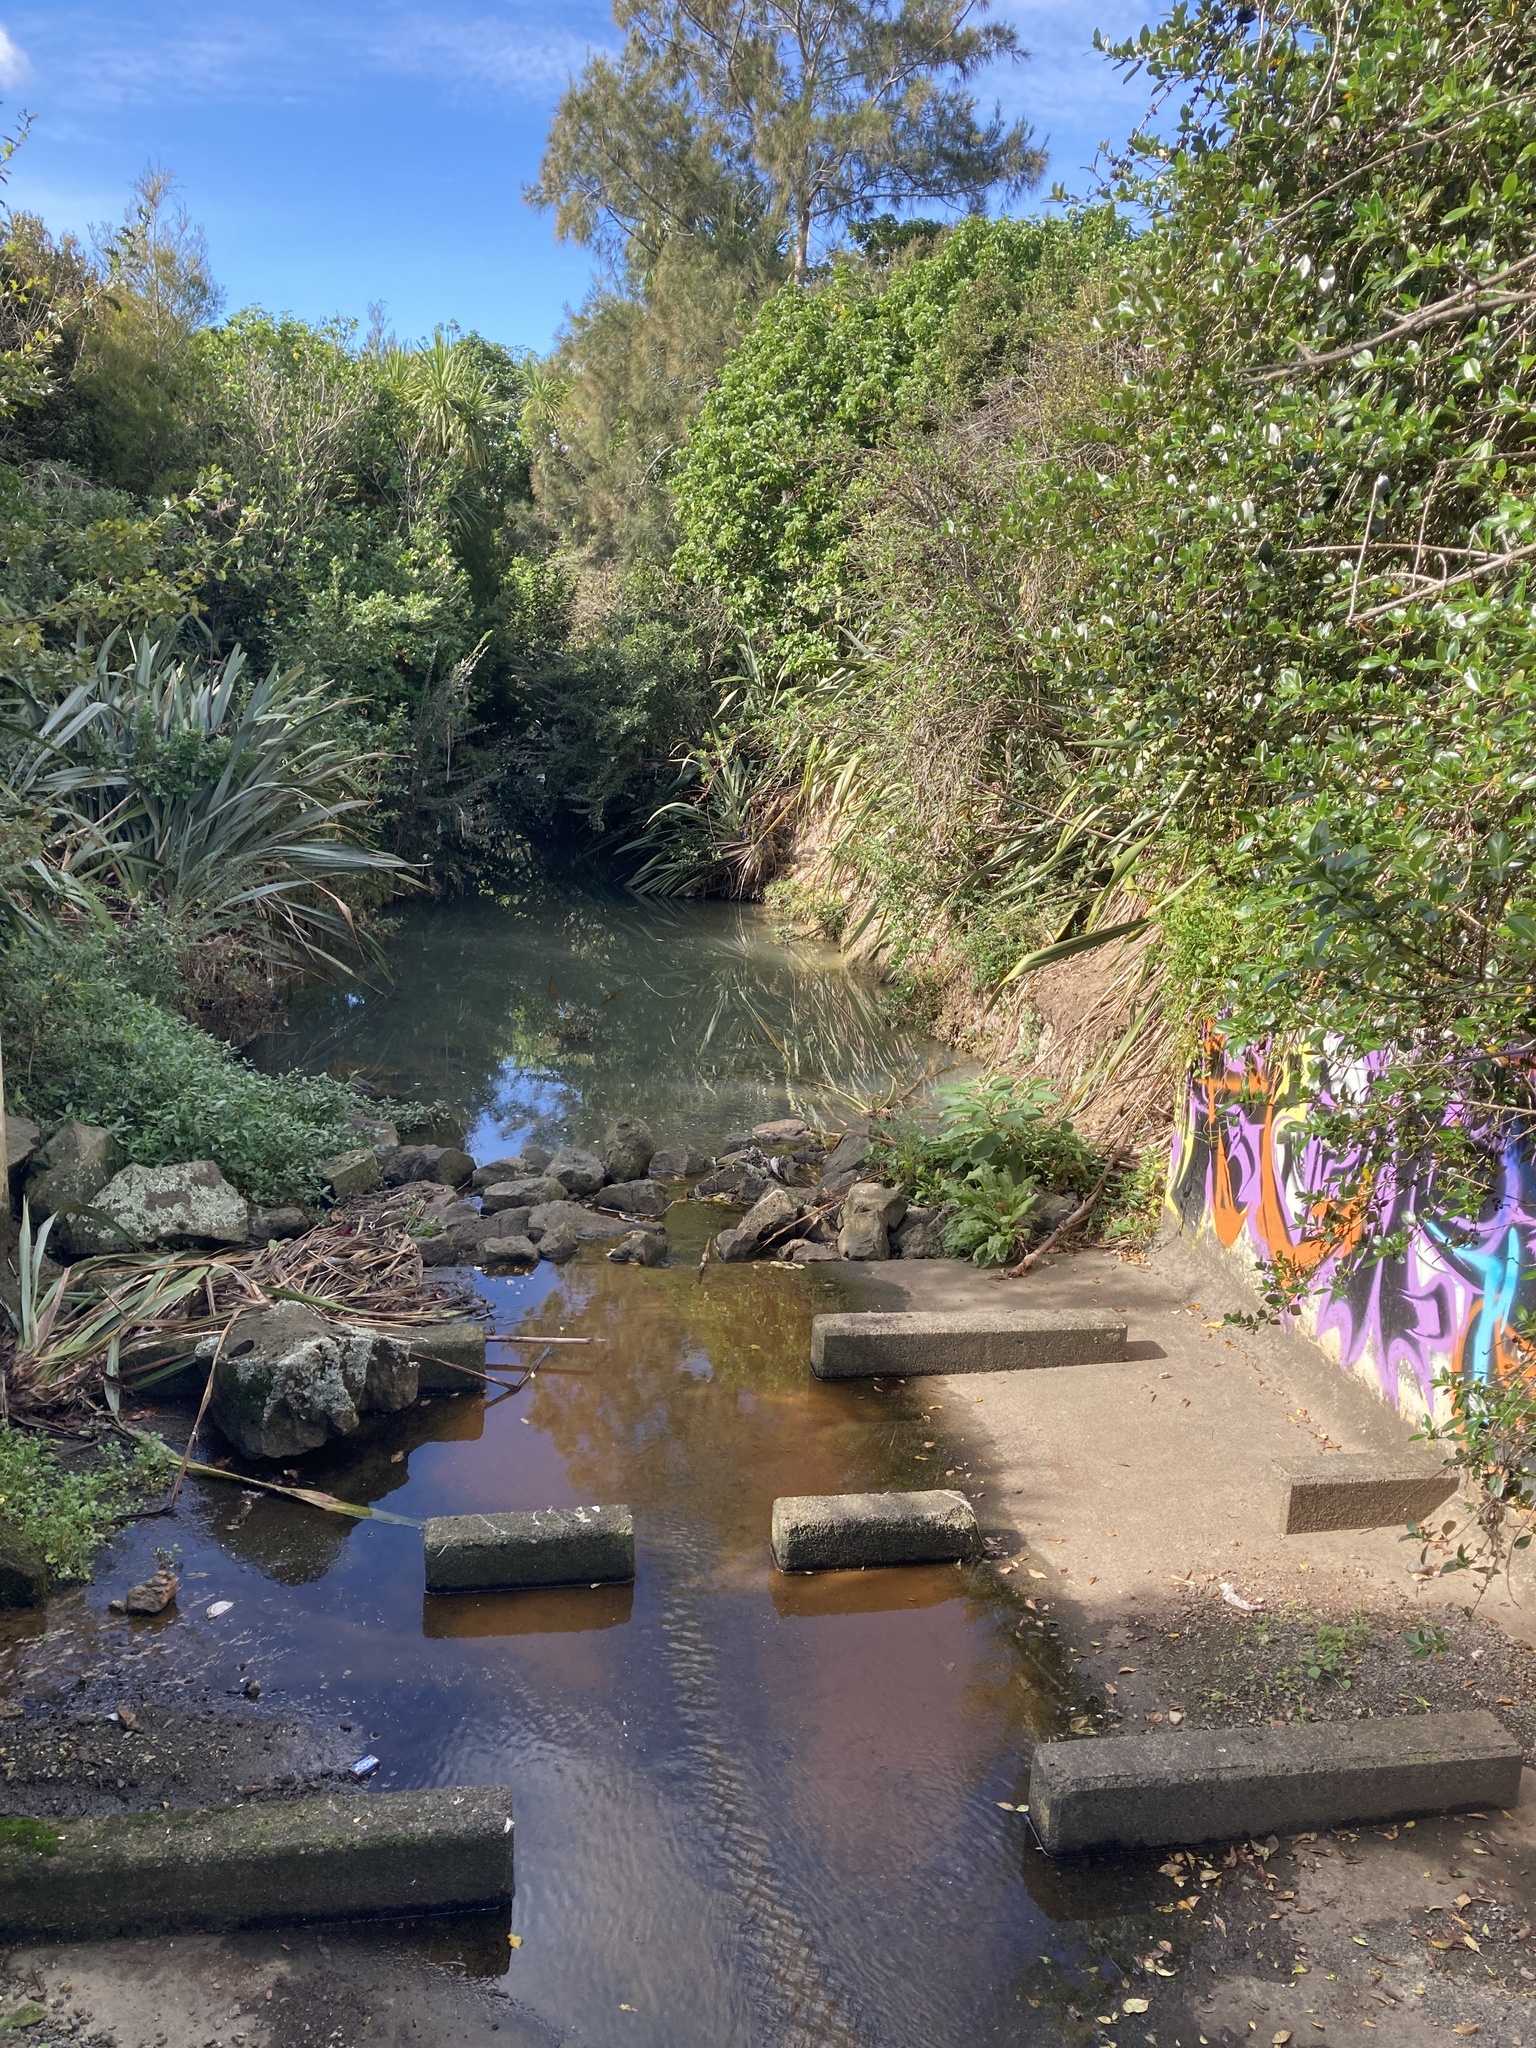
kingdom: Plantae
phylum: Tracheophyta
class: Magnoliopsida
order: Gentianales
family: Rubiaceae
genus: Coprosma
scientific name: Coprosma robusta
